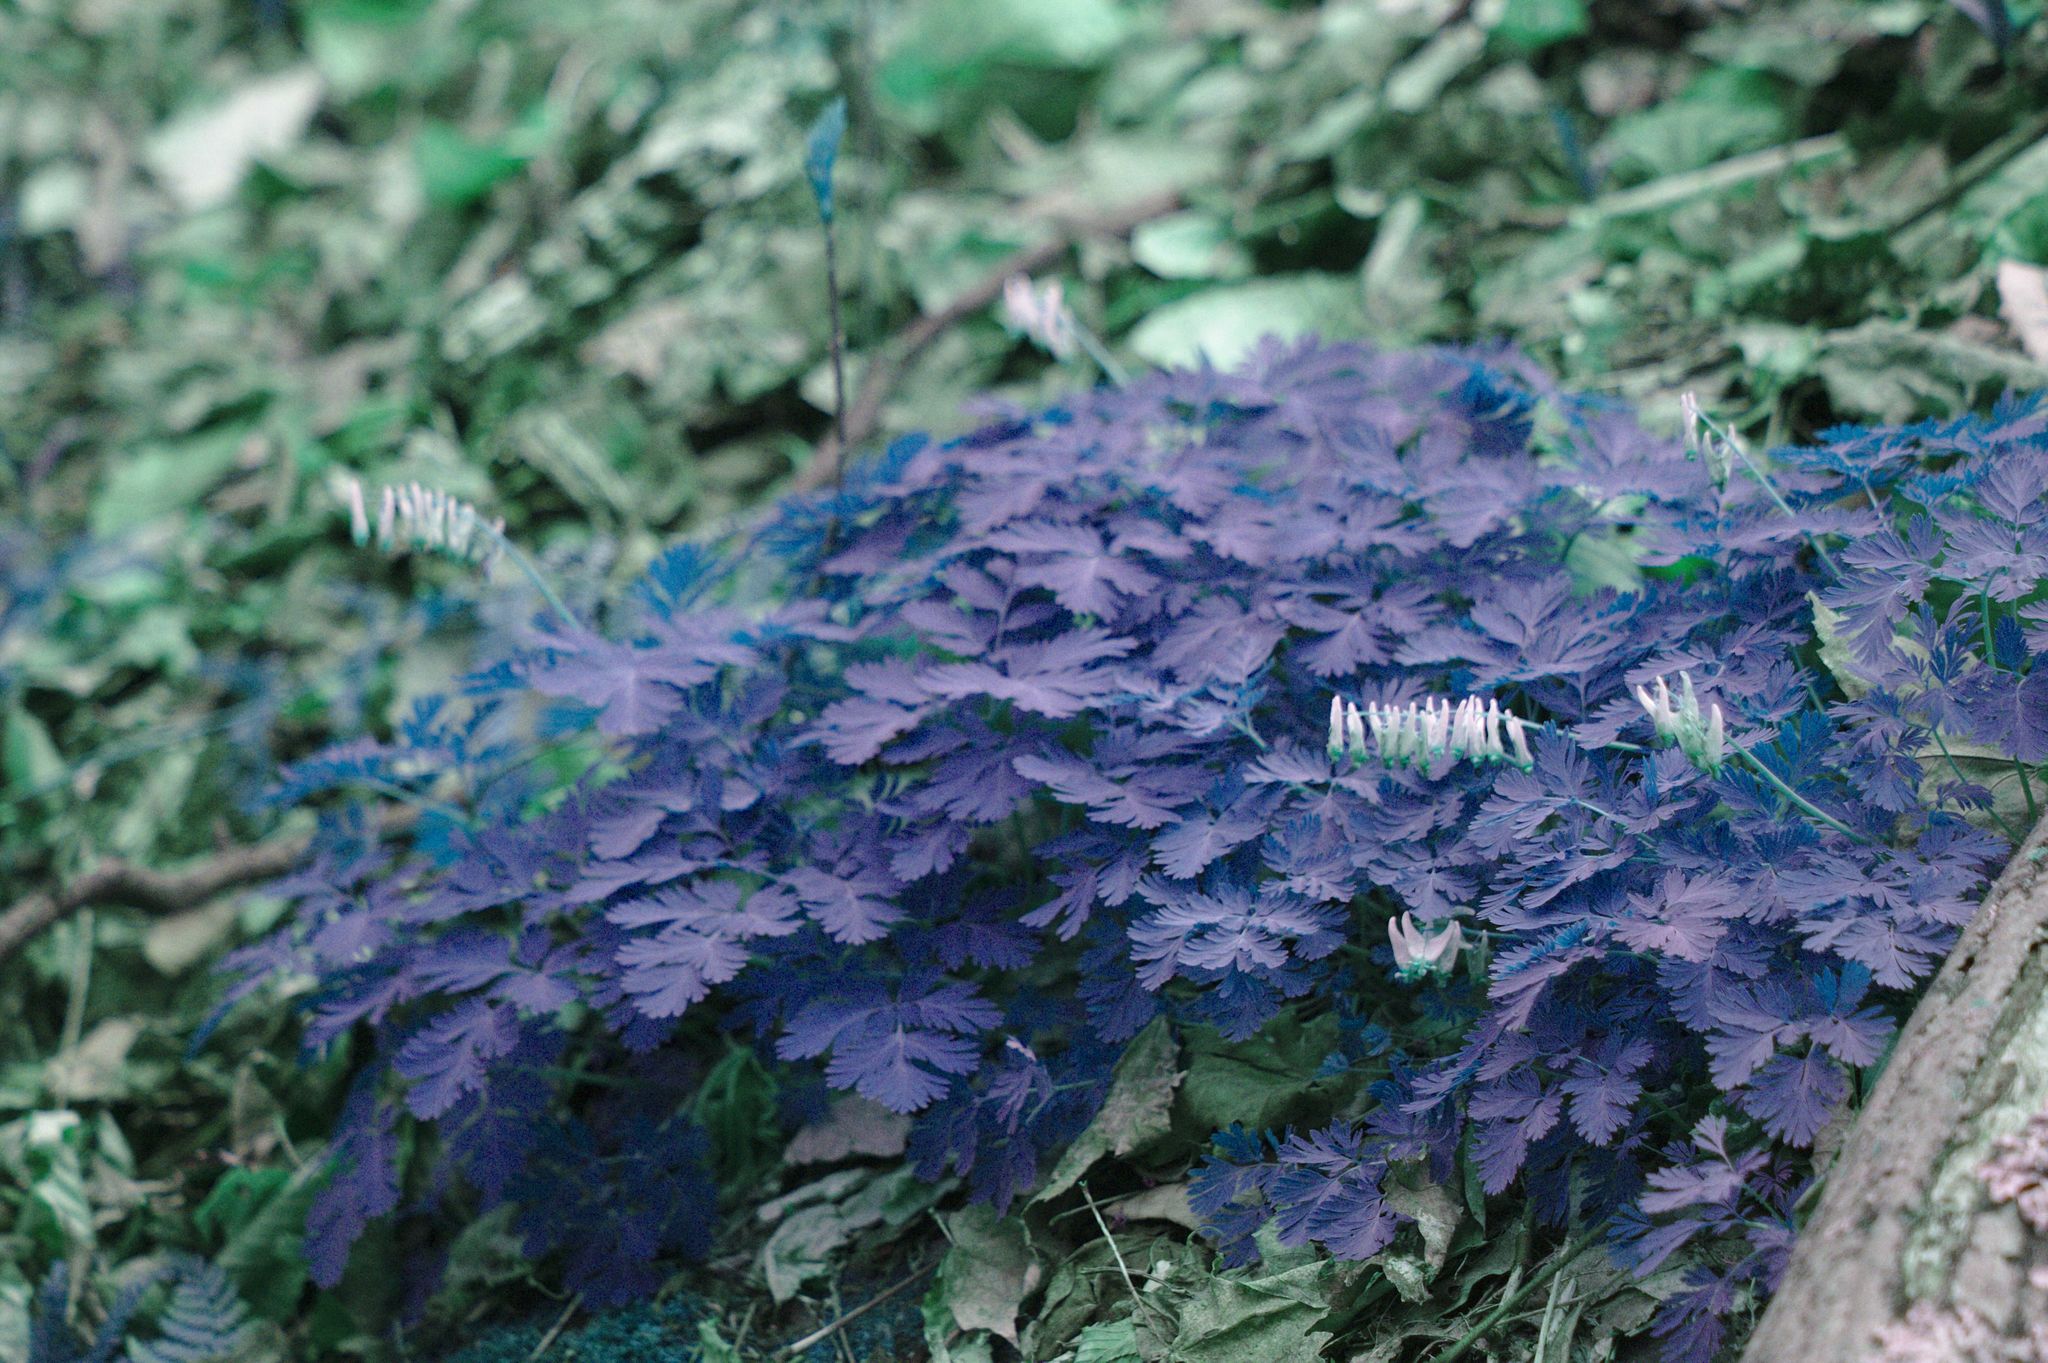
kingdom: Plantae
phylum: Tracheophyta
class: Magnoliopsida
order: Ranunculales
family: Papaveraceae
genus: Dicentra
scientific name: Dicentra cucullaria
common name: Dutchman's breeches
